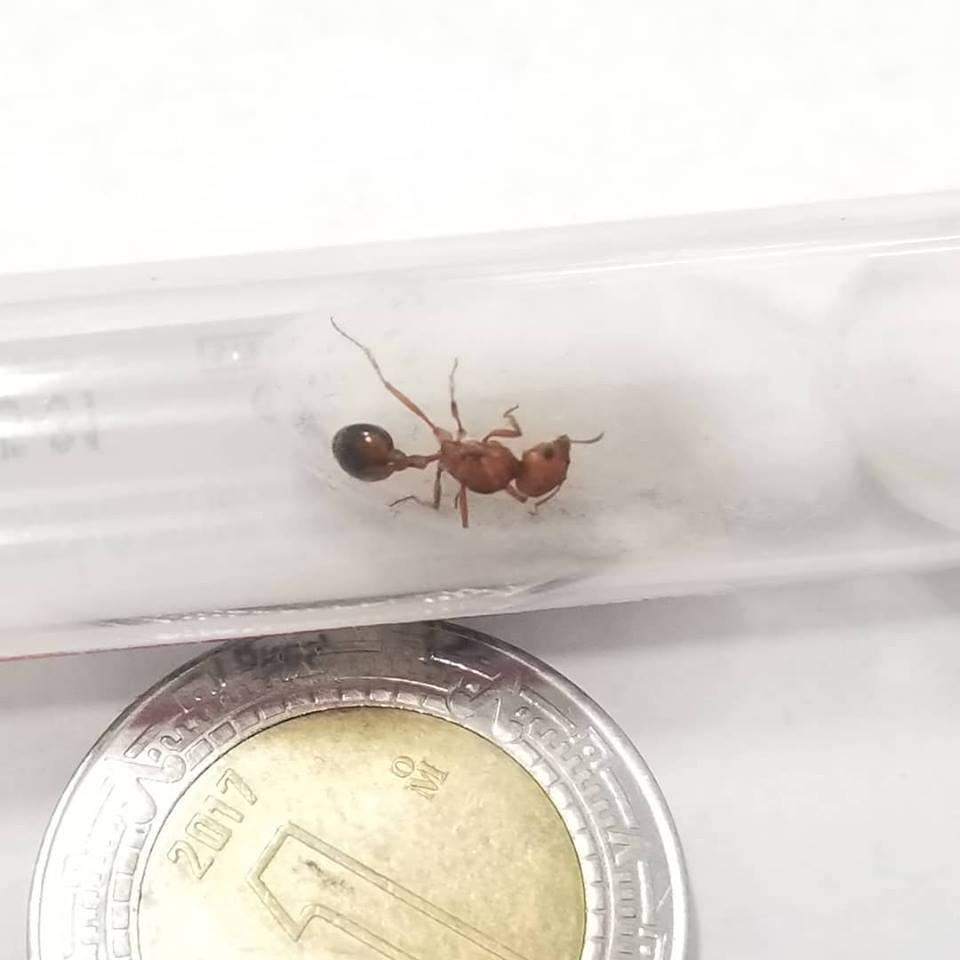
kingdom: Animalia
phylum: Arthropoda
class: Insecta
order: Hymenoptera
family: Formicidae
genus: Pogonomyrmex
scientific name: Pogonomyrmex californicus
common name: California harvester ant
